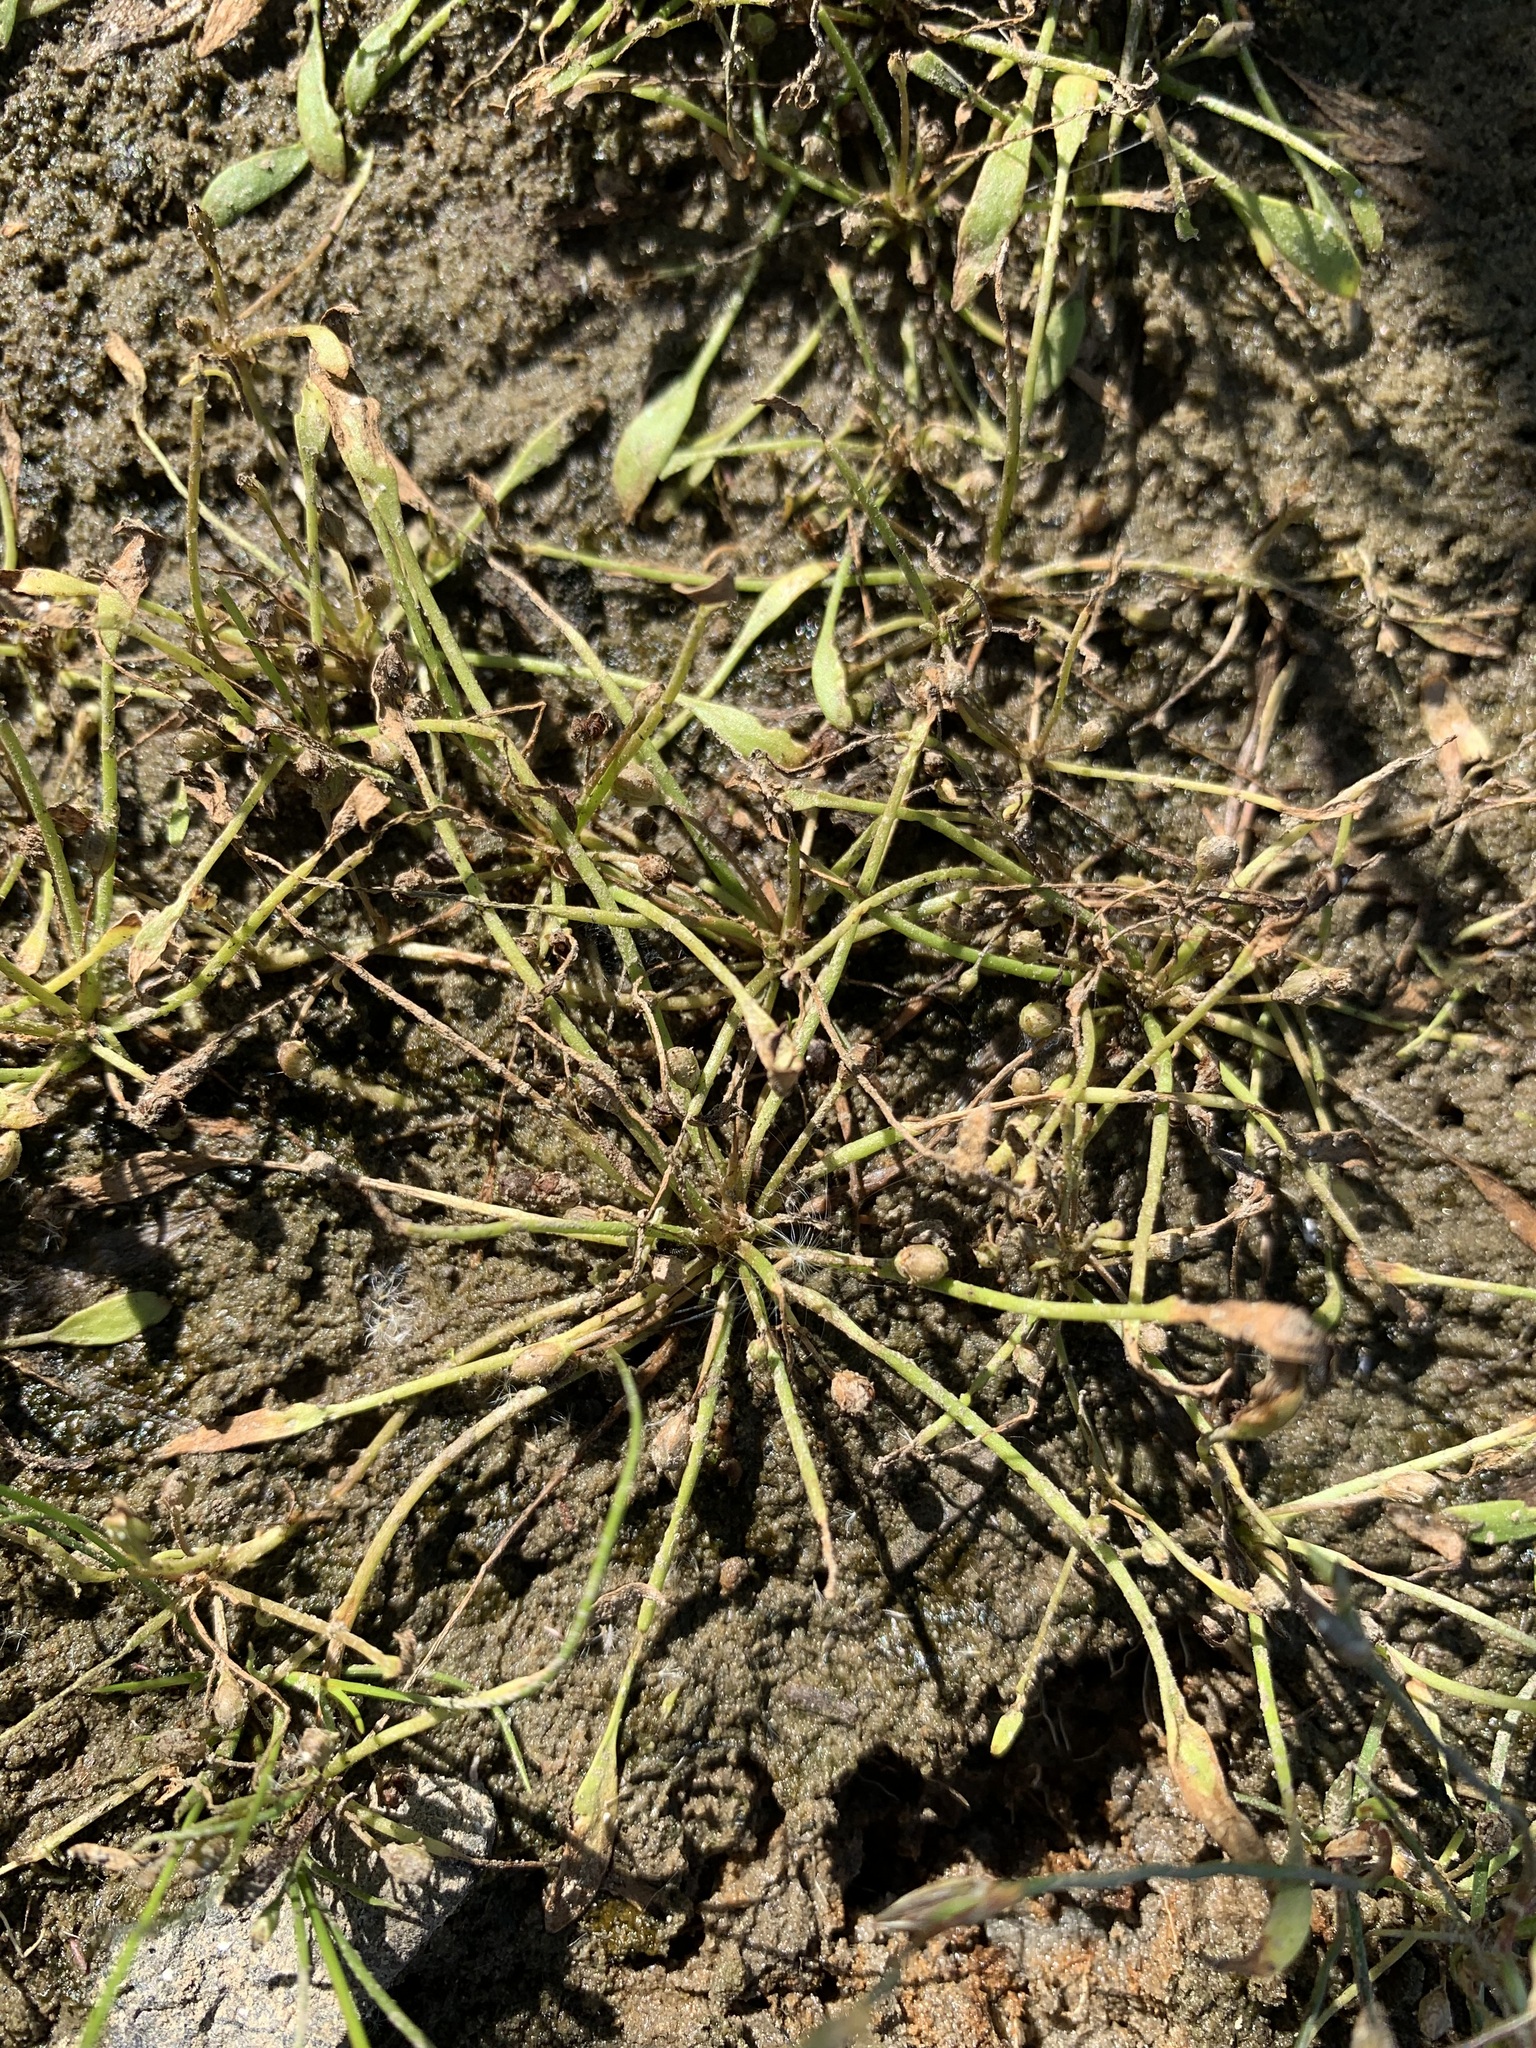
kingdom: Plantae
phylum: Tracheophyta
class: Magnoliopsida
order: Lamiales
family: Scrophulariaceae
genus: Limosella
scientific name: Limosella aquatica
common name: Mudwort
